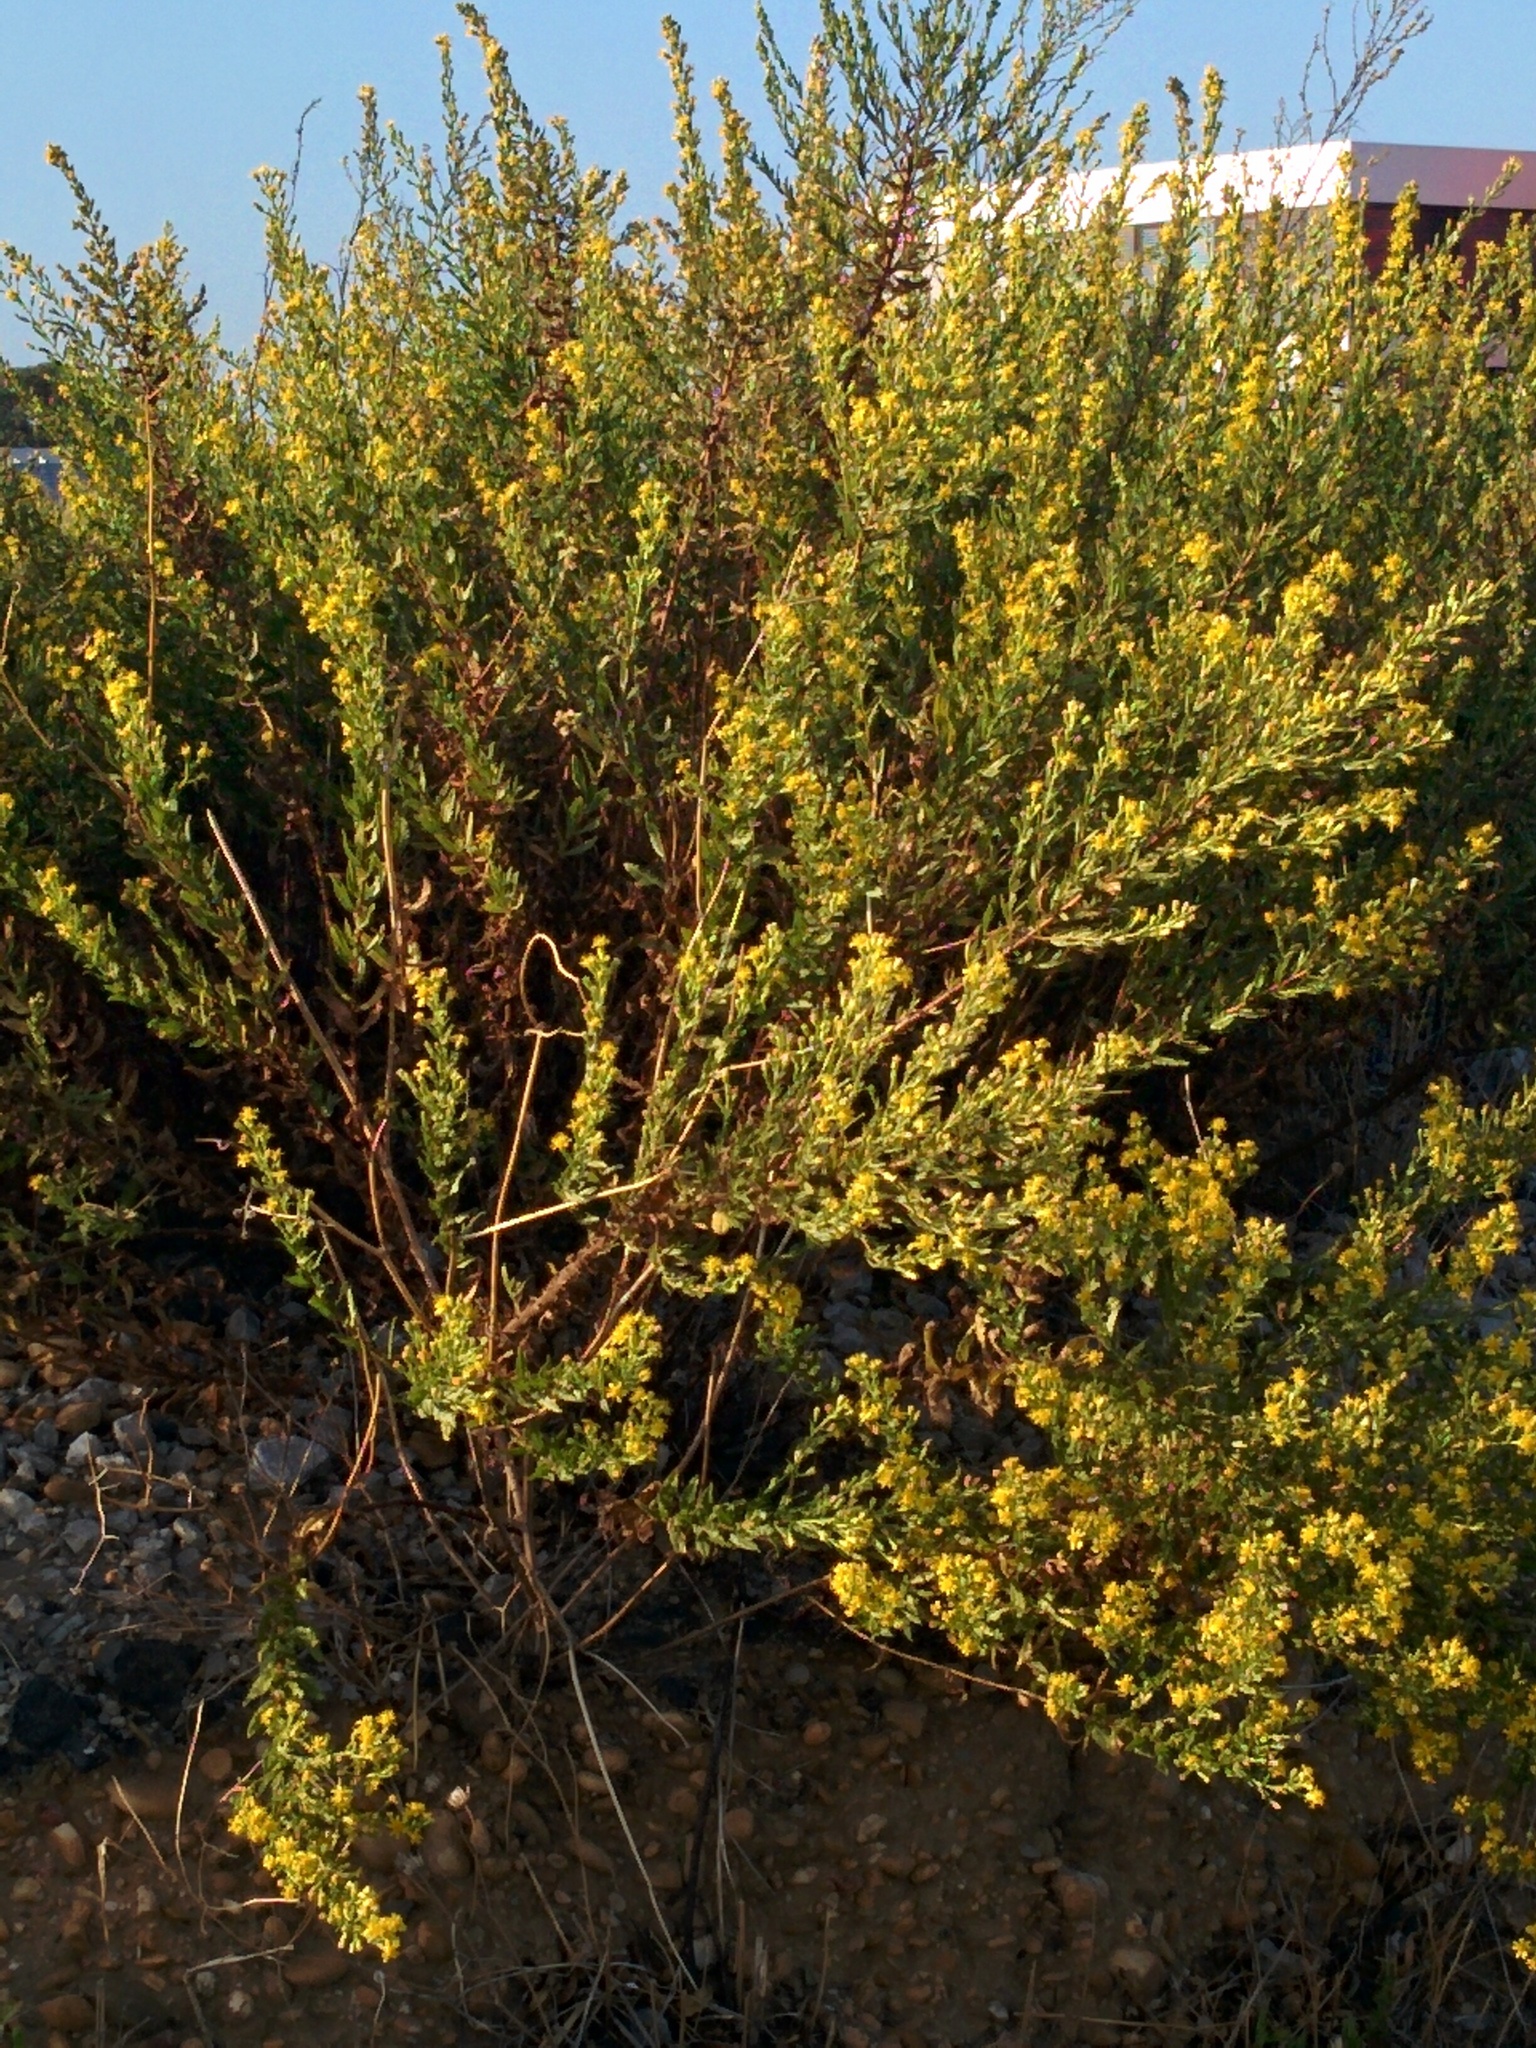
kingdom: Plantae
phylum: Tracheophyta
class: Magnoliopsida
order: Asterales
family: Asteraceae
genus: Dittrichia
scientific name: Dittrichia viscosa
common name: Woody fleabane
